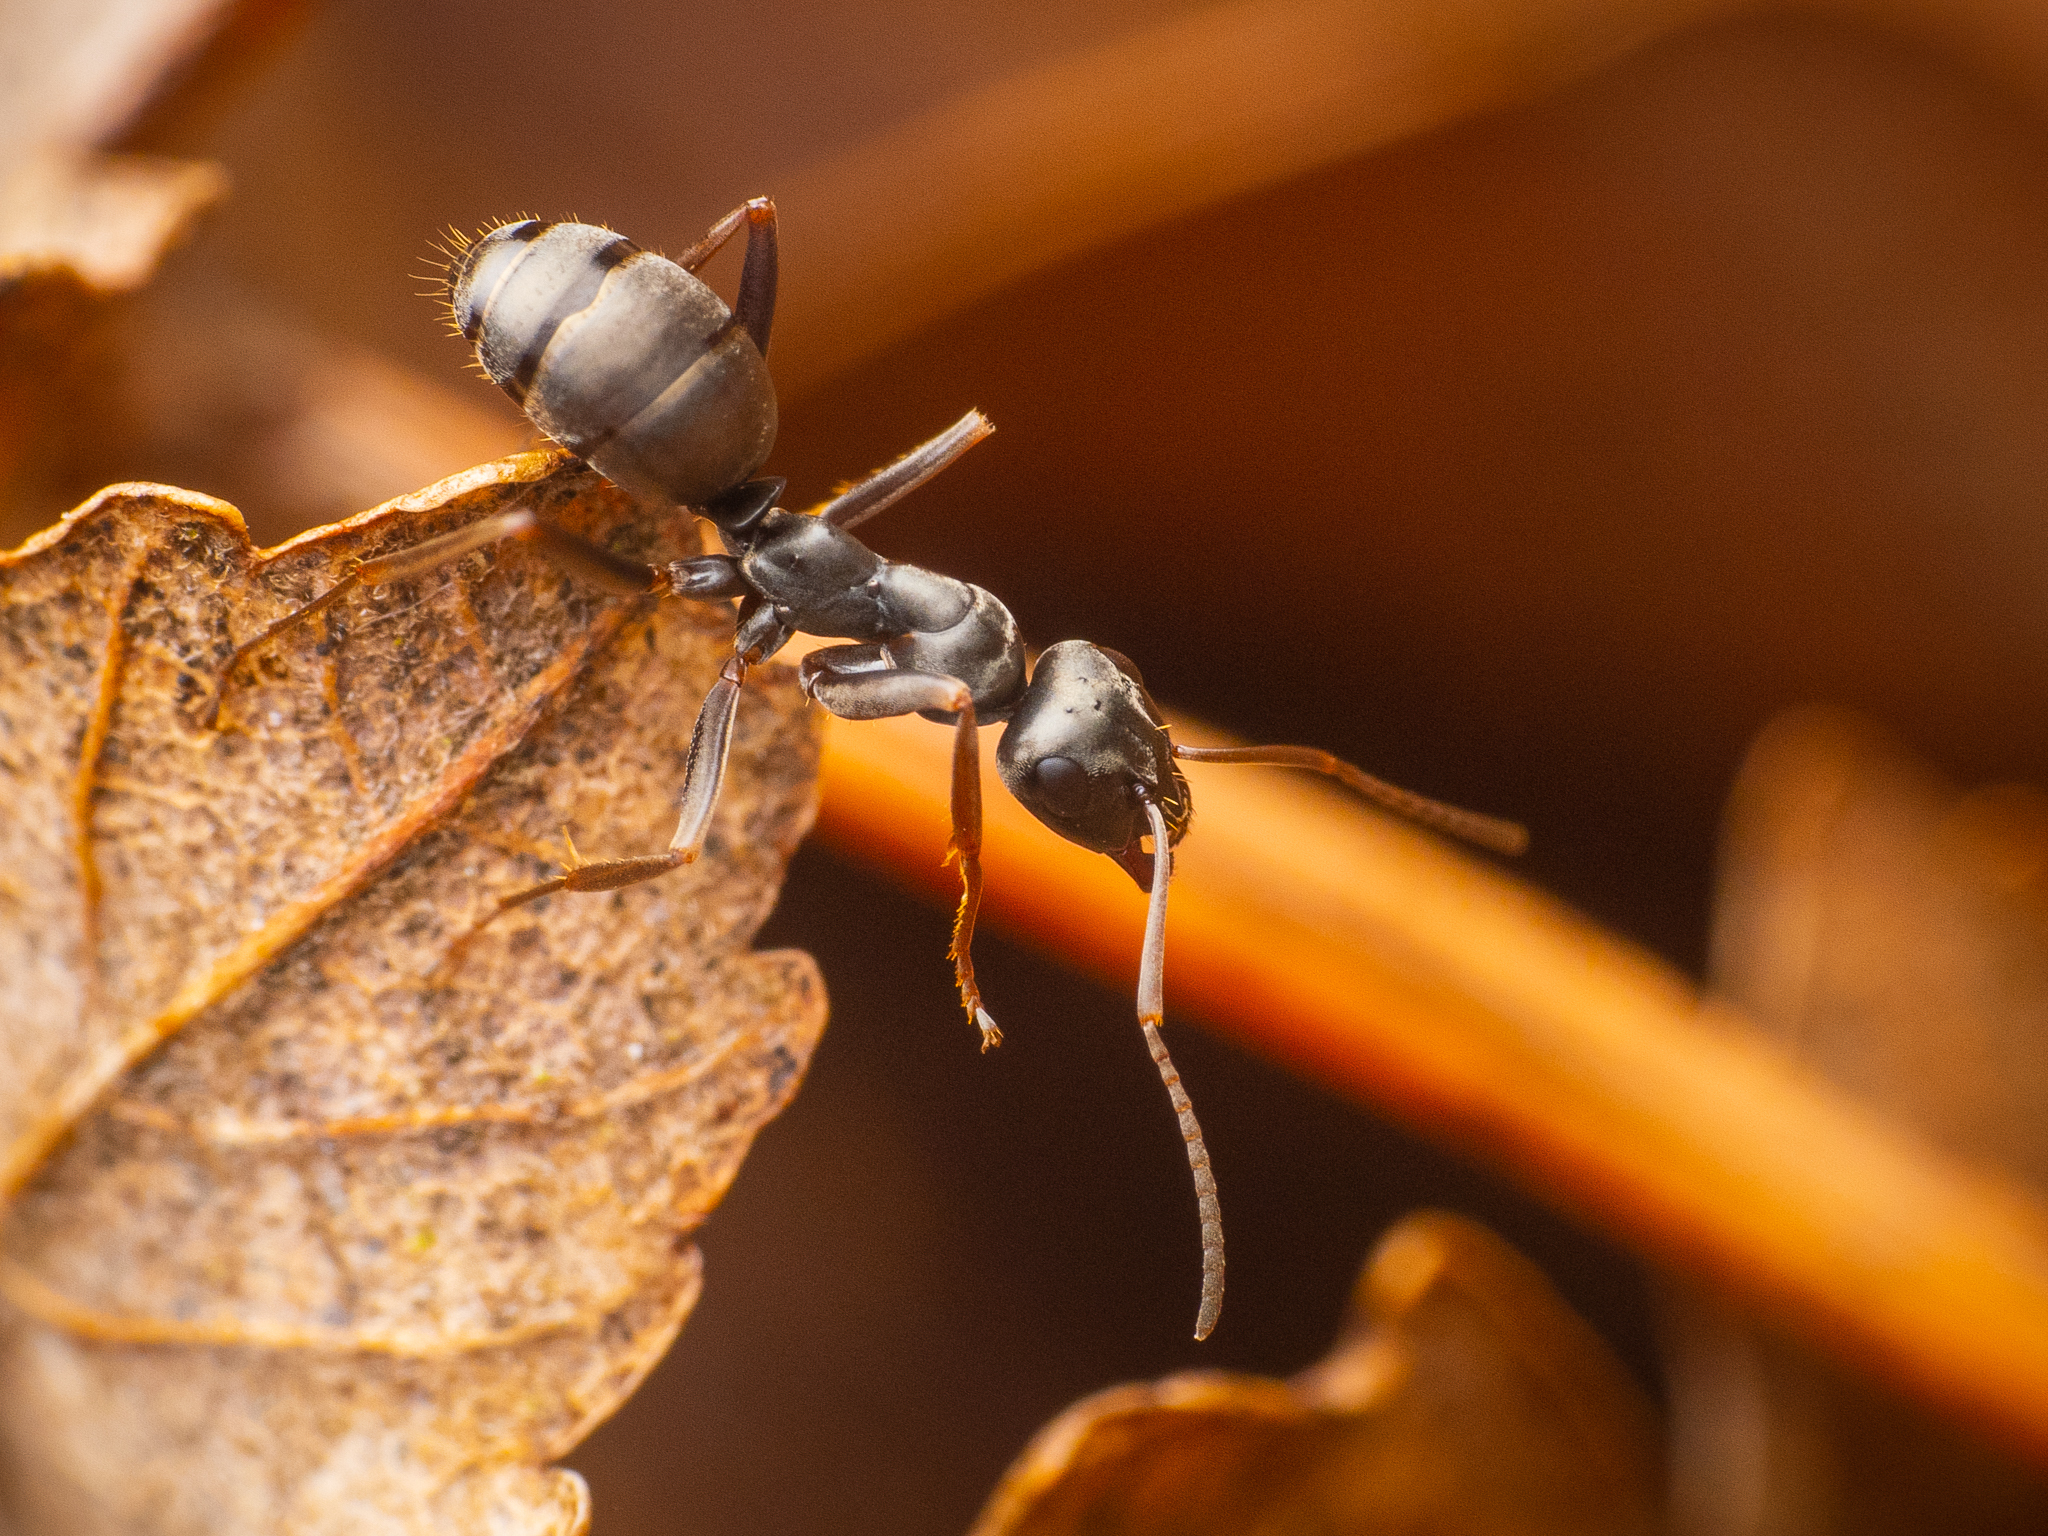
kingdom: Animalia
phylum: Arthropoda
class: Insecta
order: Hymenoptera
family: Formicidae
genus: Formica
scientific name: Formica fusca
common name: Silky ant
